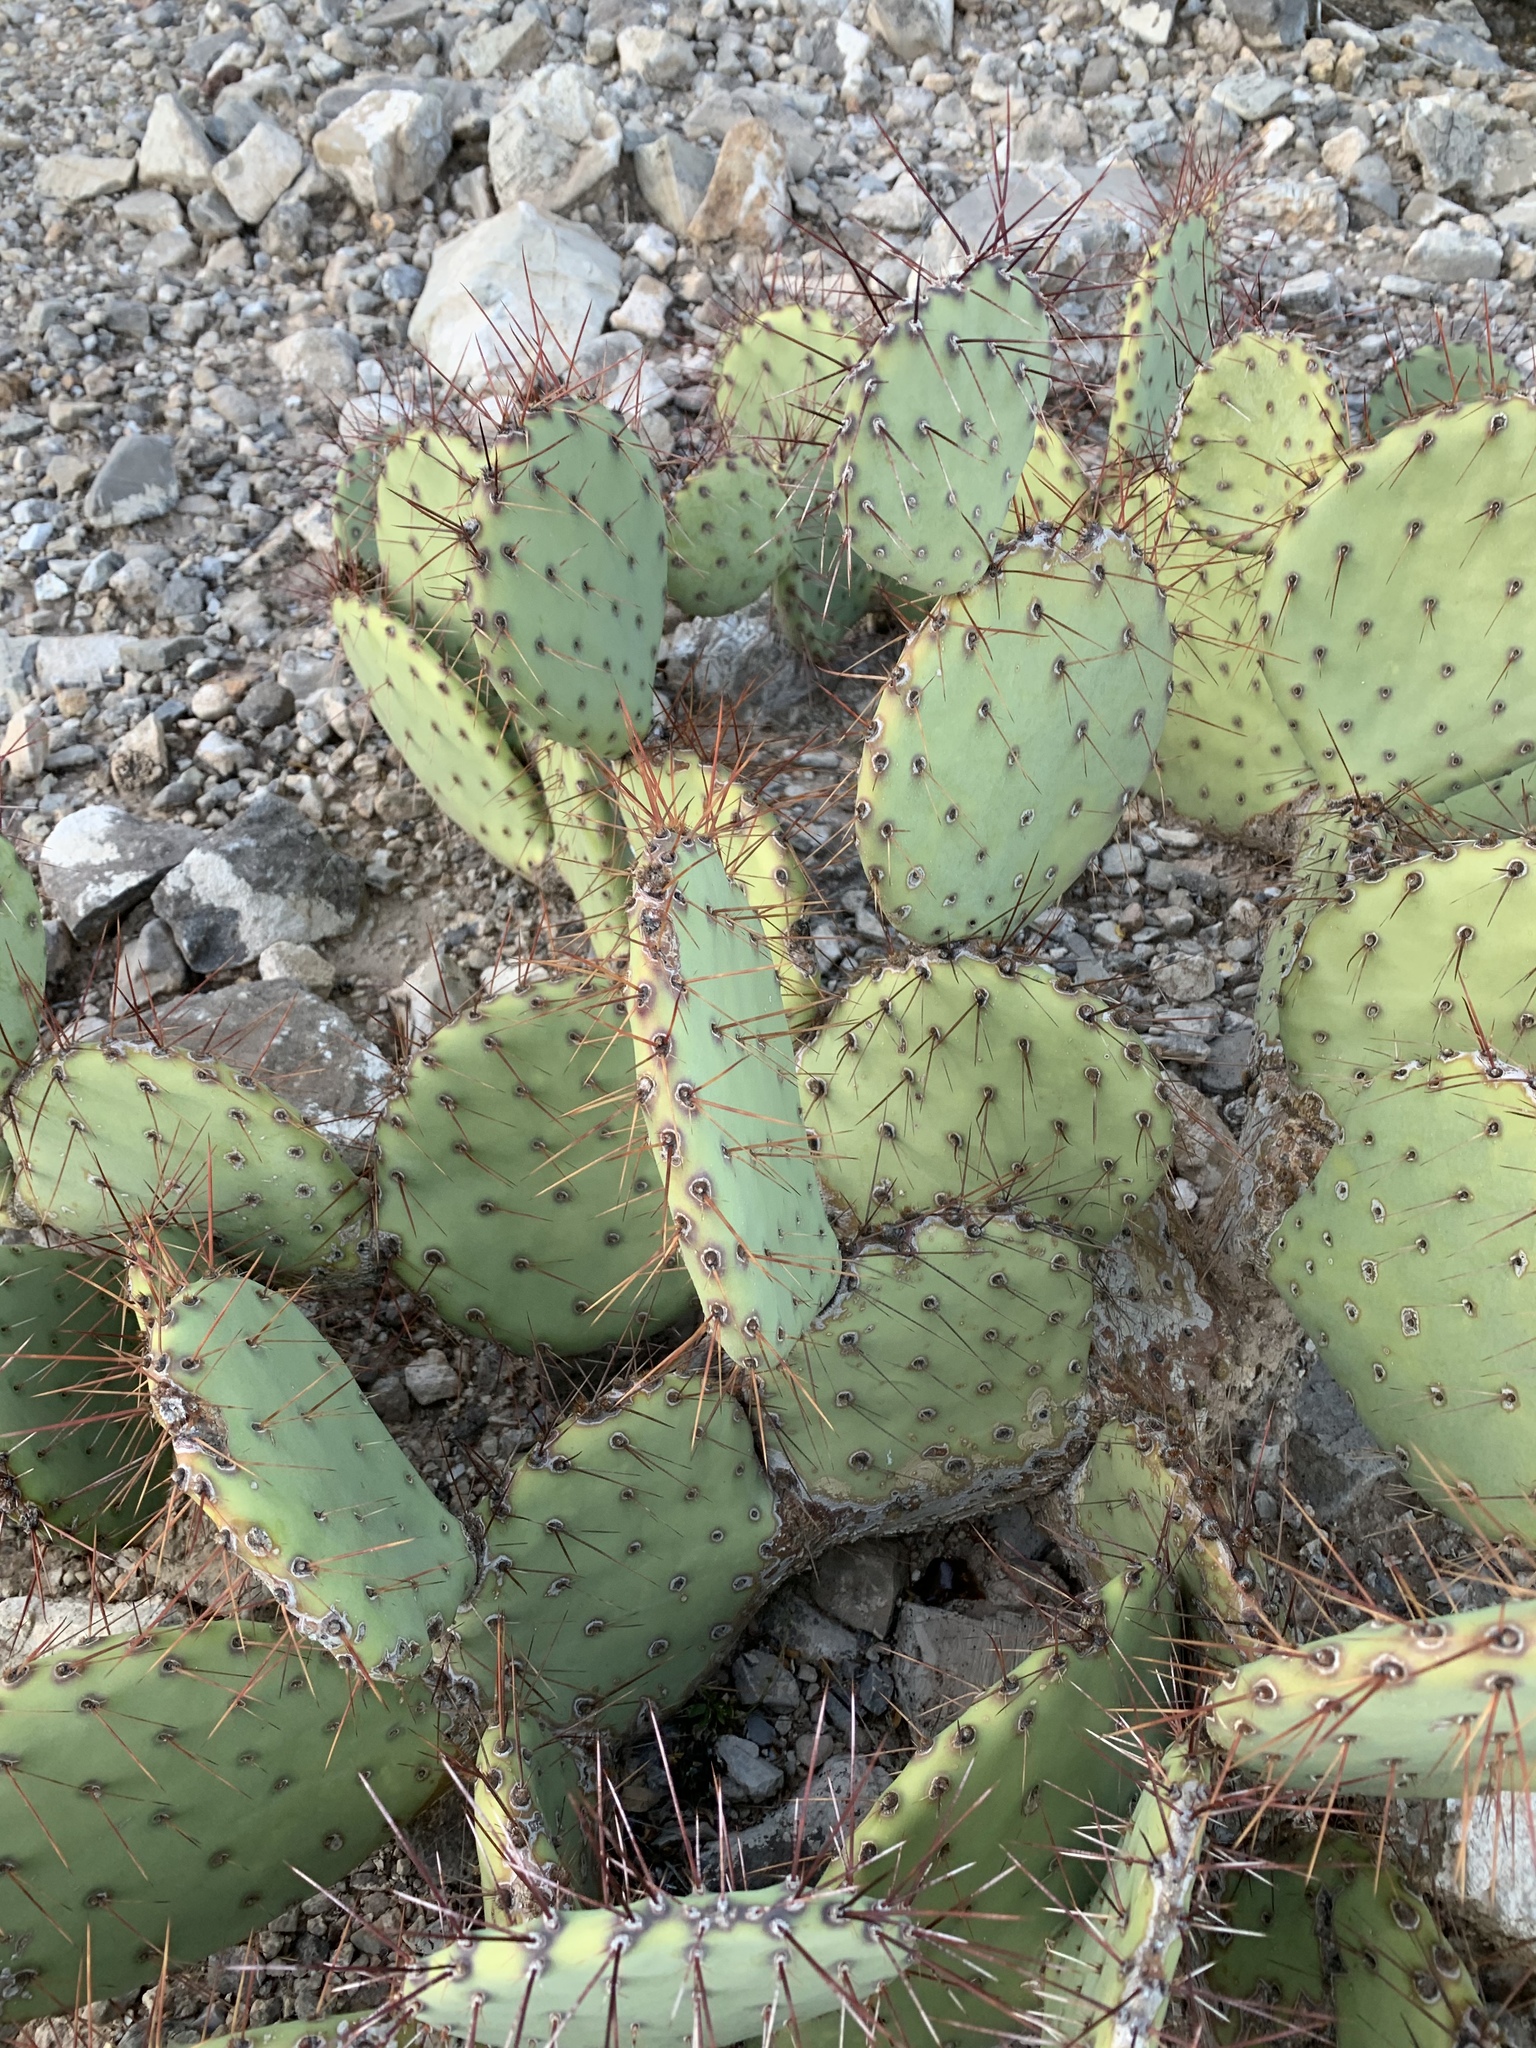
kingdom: Plantae
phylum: Tracheophyta
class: Magnoliopsida
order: Caryophyllales
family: Cactaceae
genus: Opuntia
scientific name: Opuntia phaeacantha
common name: New mexico prickly-pear
